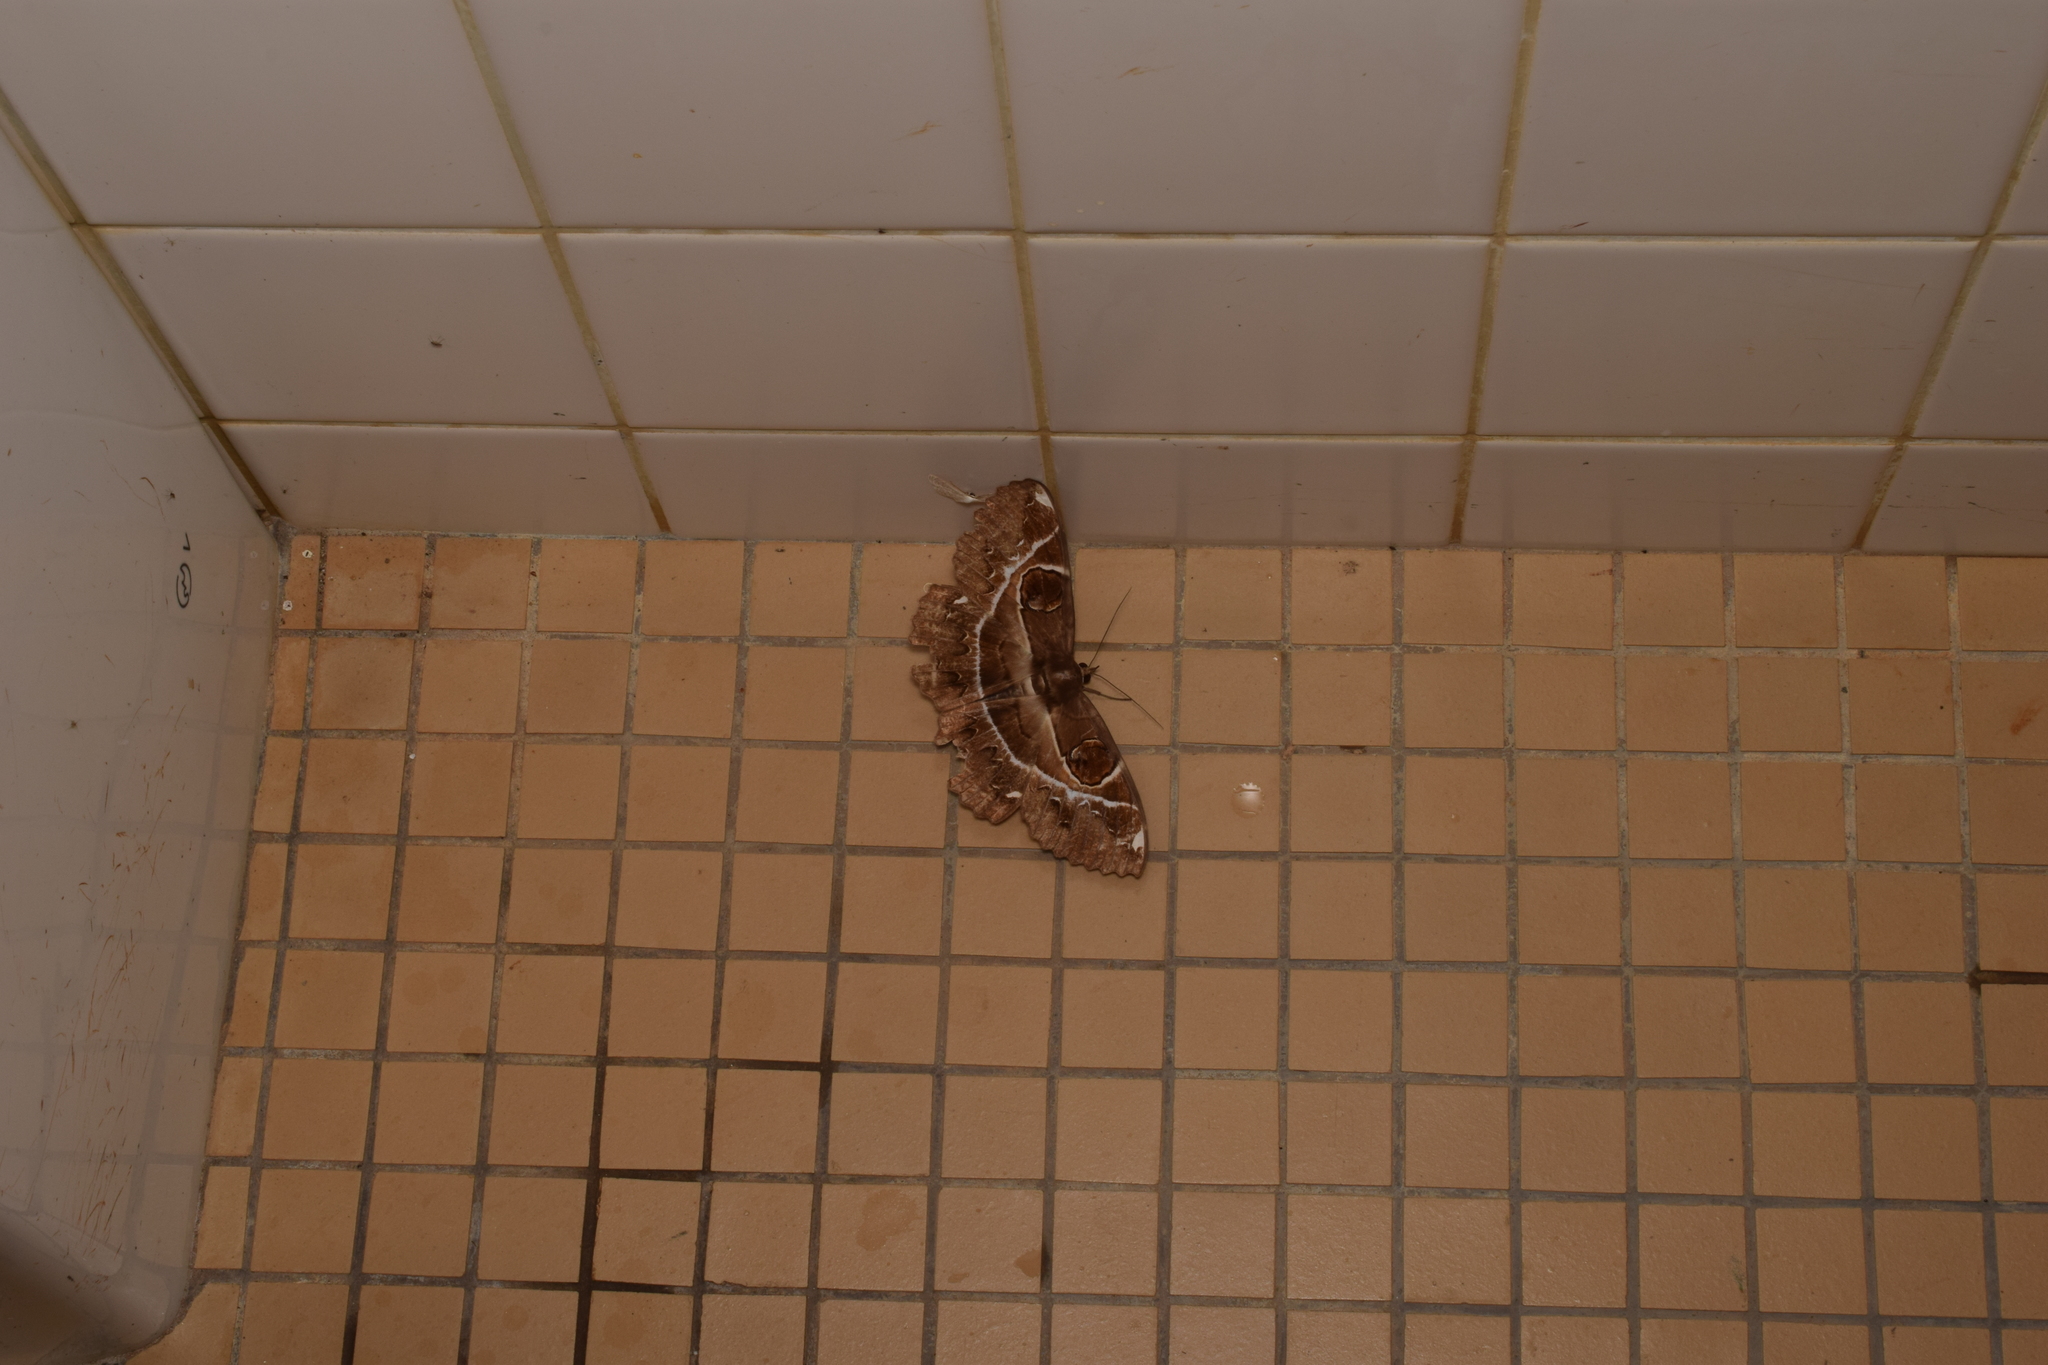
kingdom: Animalia
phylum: Arthropoda
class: Insecta
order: Lepidoptera
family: Erebidae
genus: Erebus
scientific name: Erebus ephesperis
